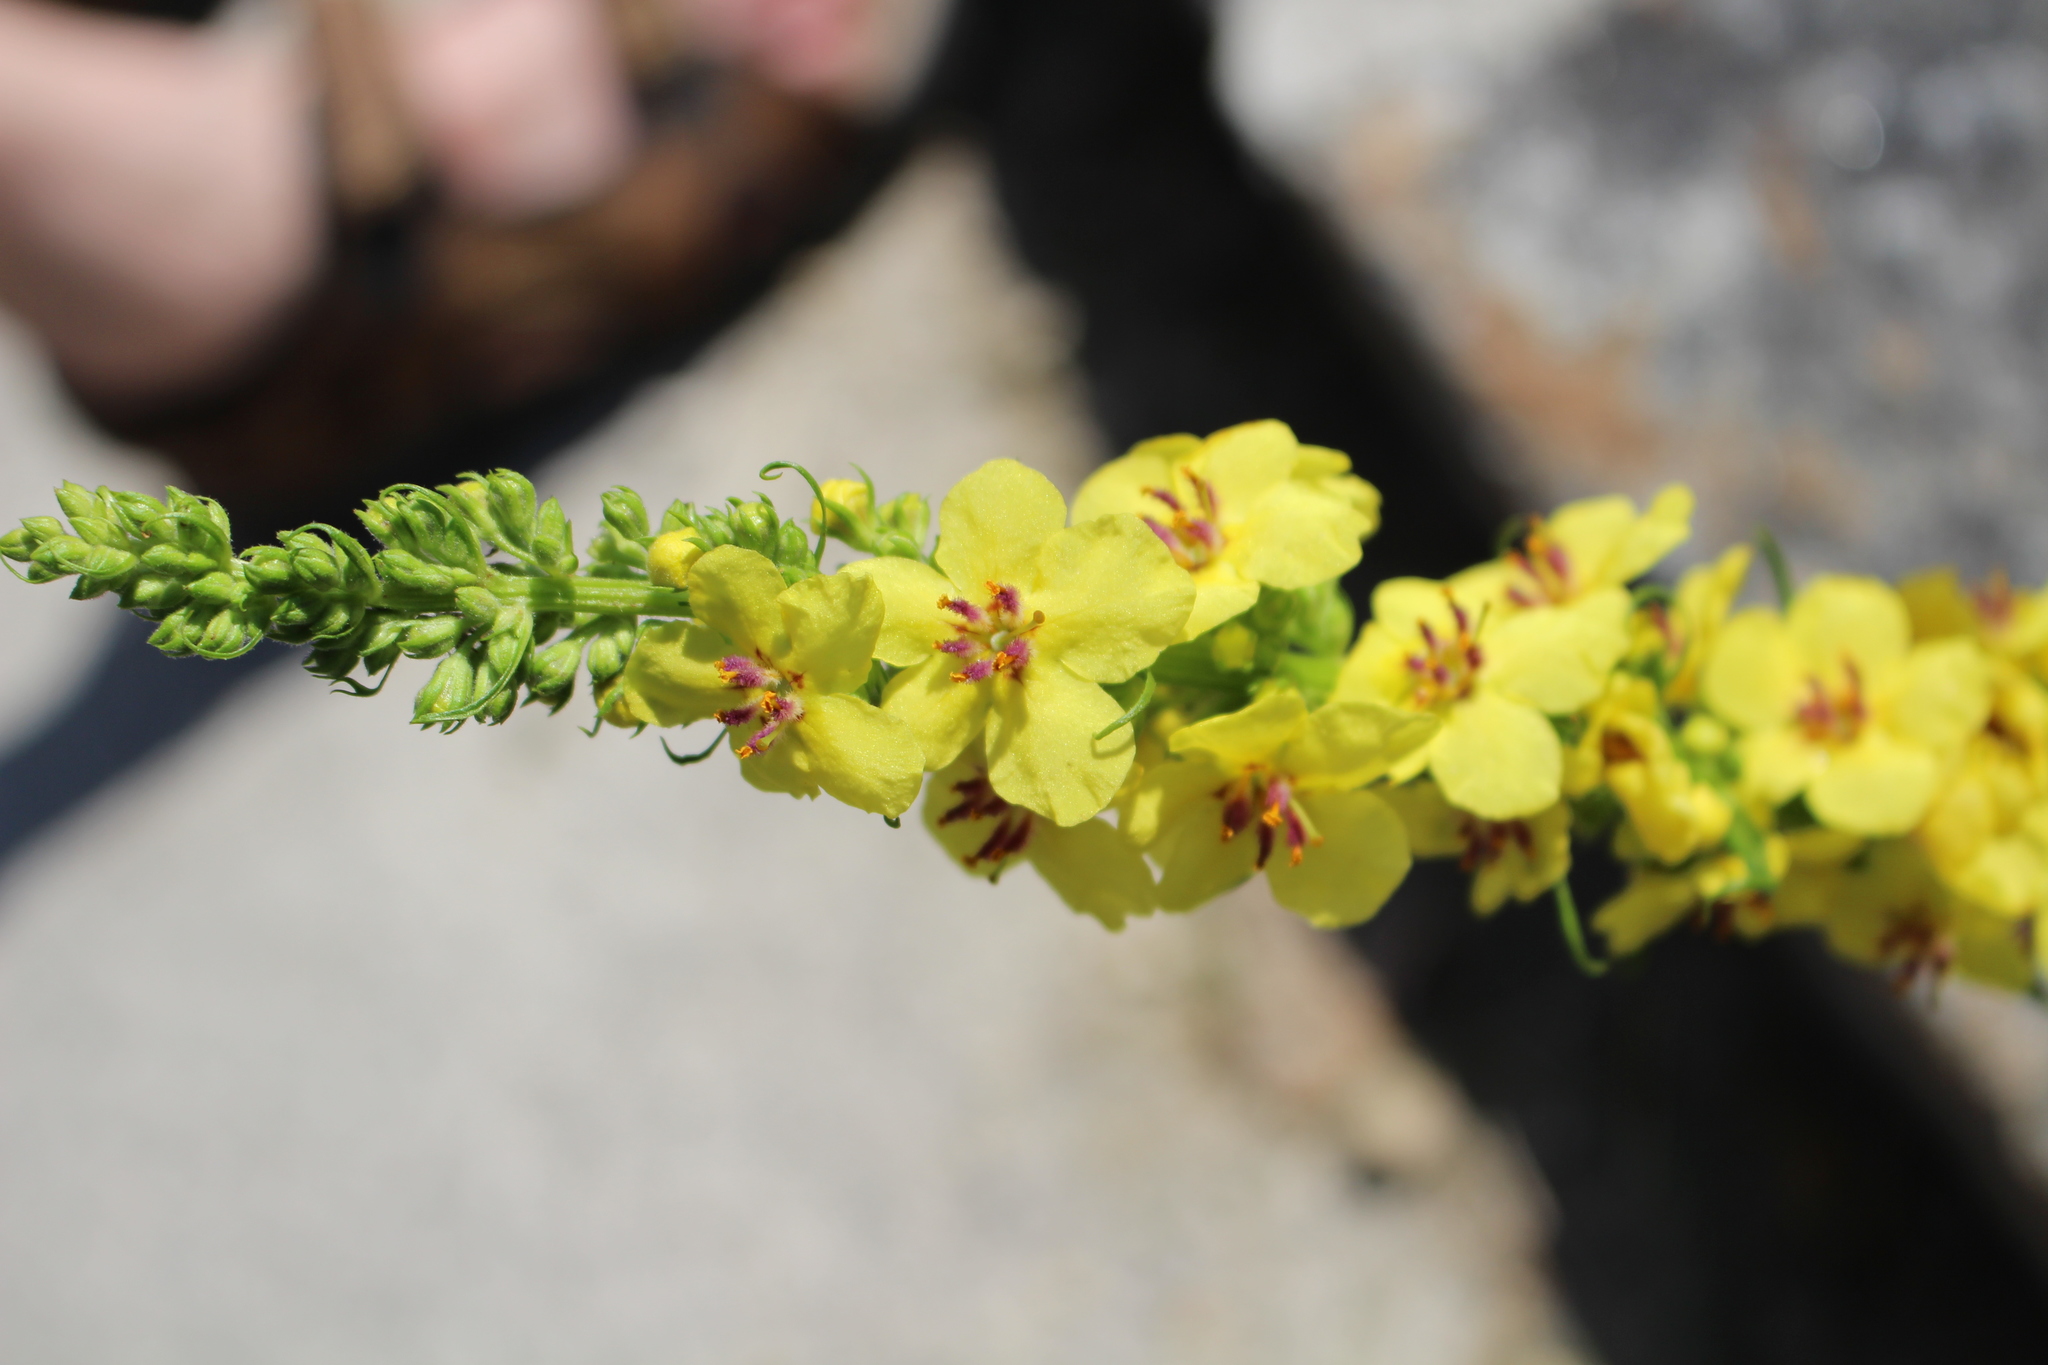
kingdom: Plantae
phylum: Tracheophyta
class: Magnoliopsida
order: Lamiales
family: Scrophulariaceae
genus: Verbascum
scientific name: Verbascum nigrum
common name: Dark mullein
